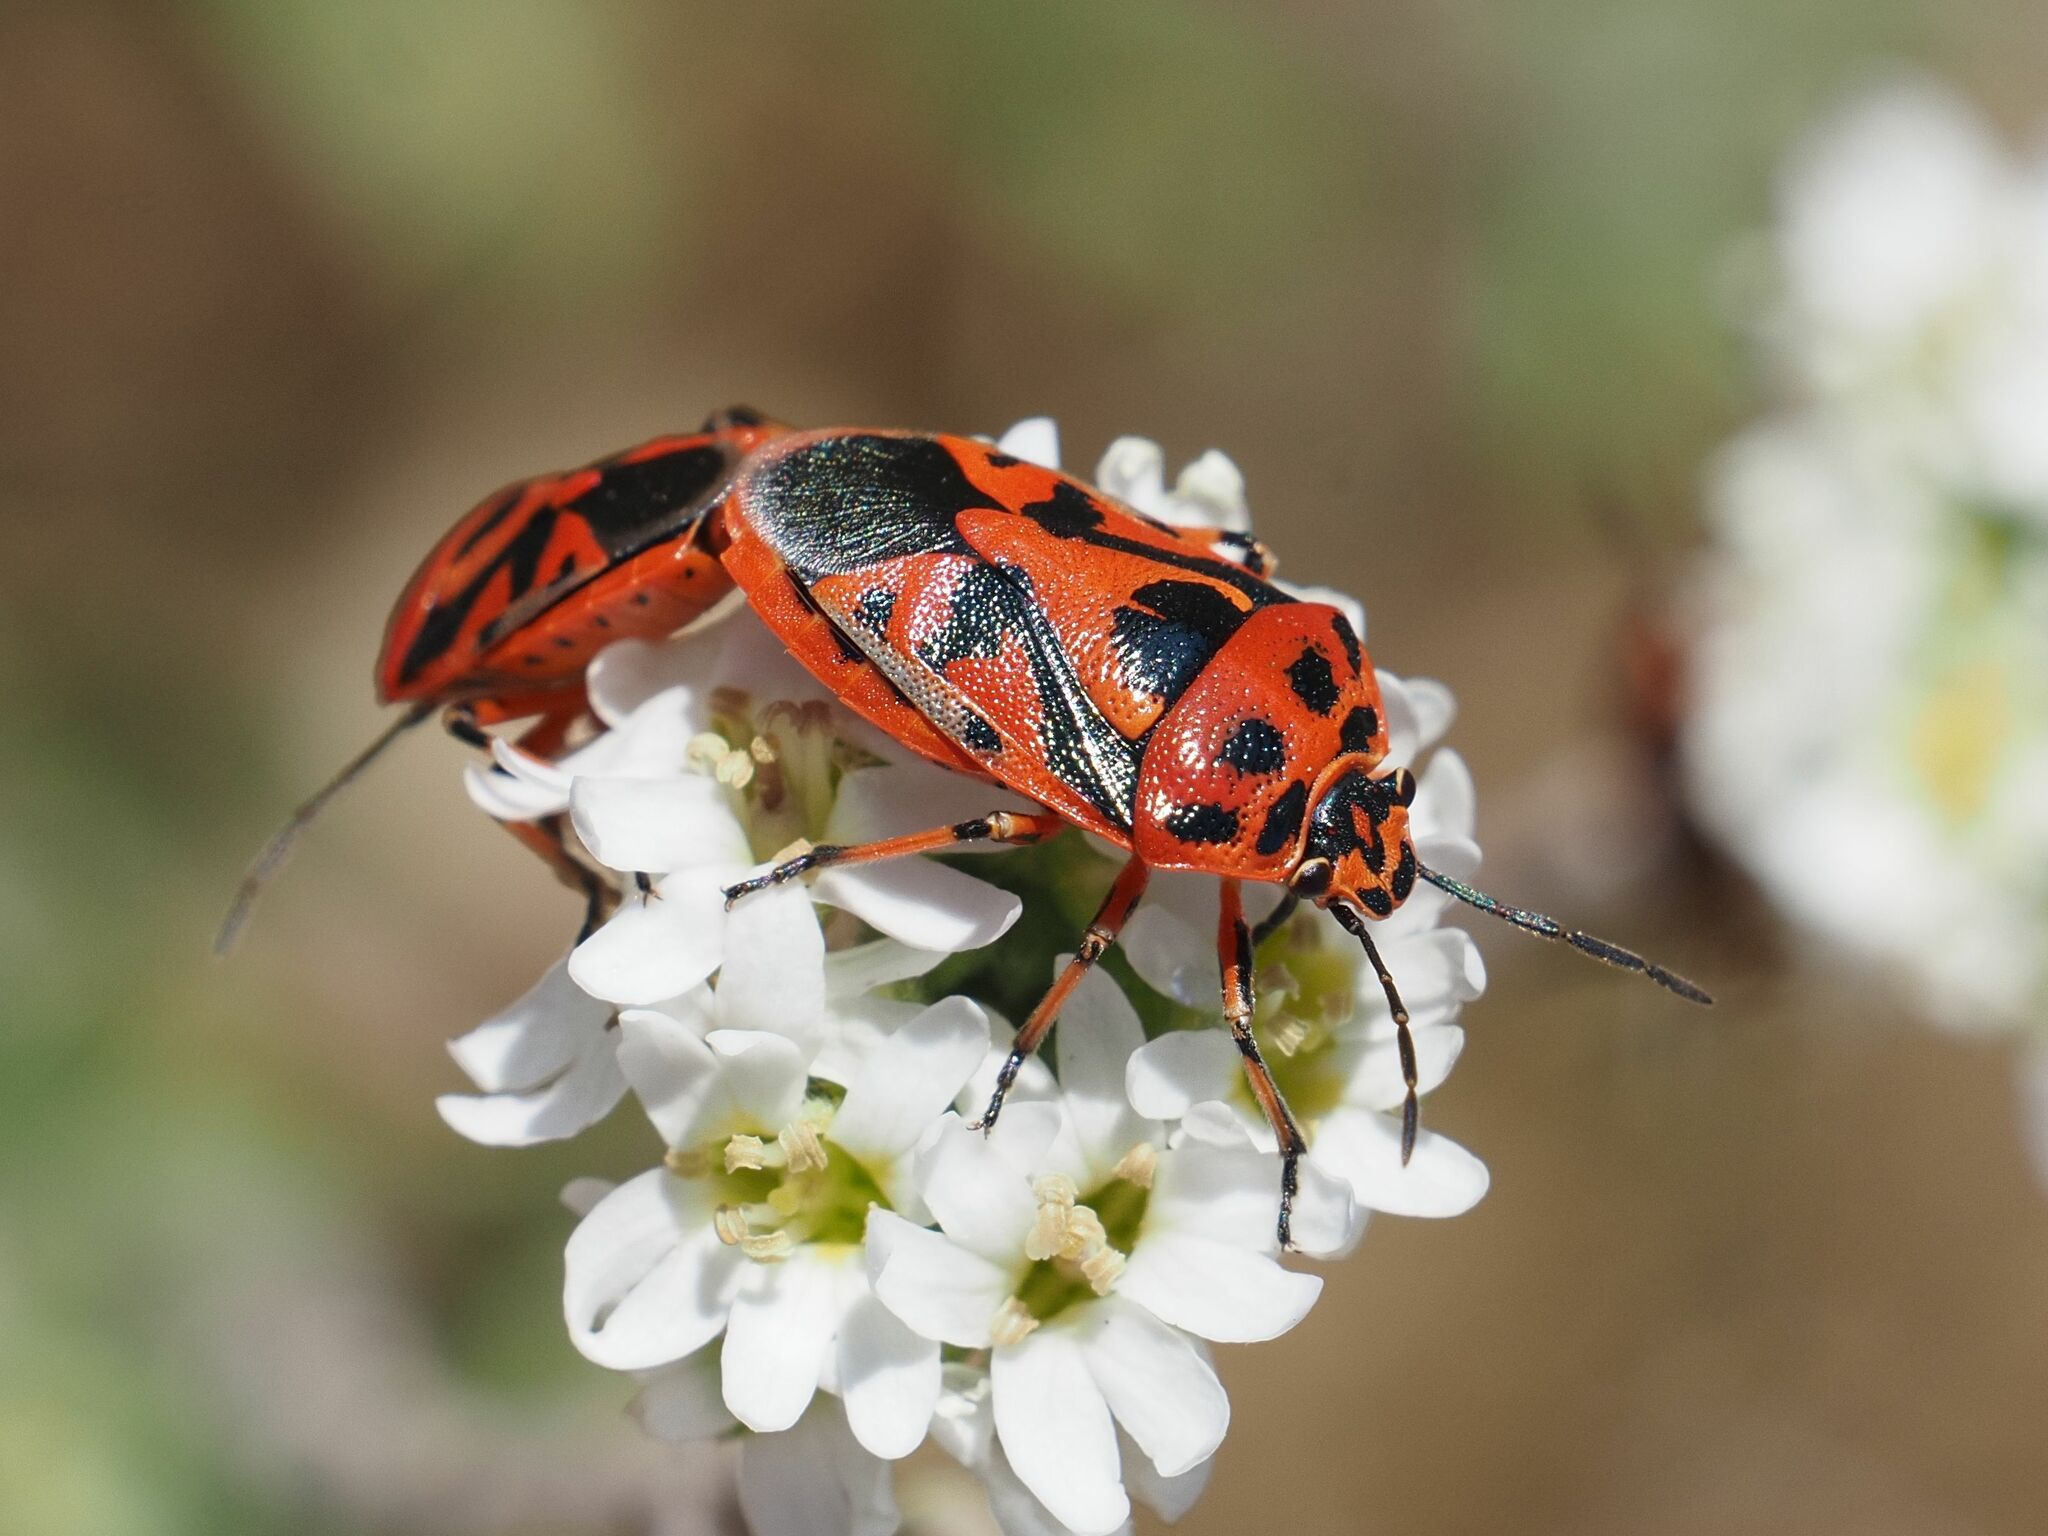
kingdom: Animalia
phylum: Arthropoda
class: Insecta
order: Hemiptera
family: Pentatomidae
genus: Eurydema
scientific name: Eurydema ornata
